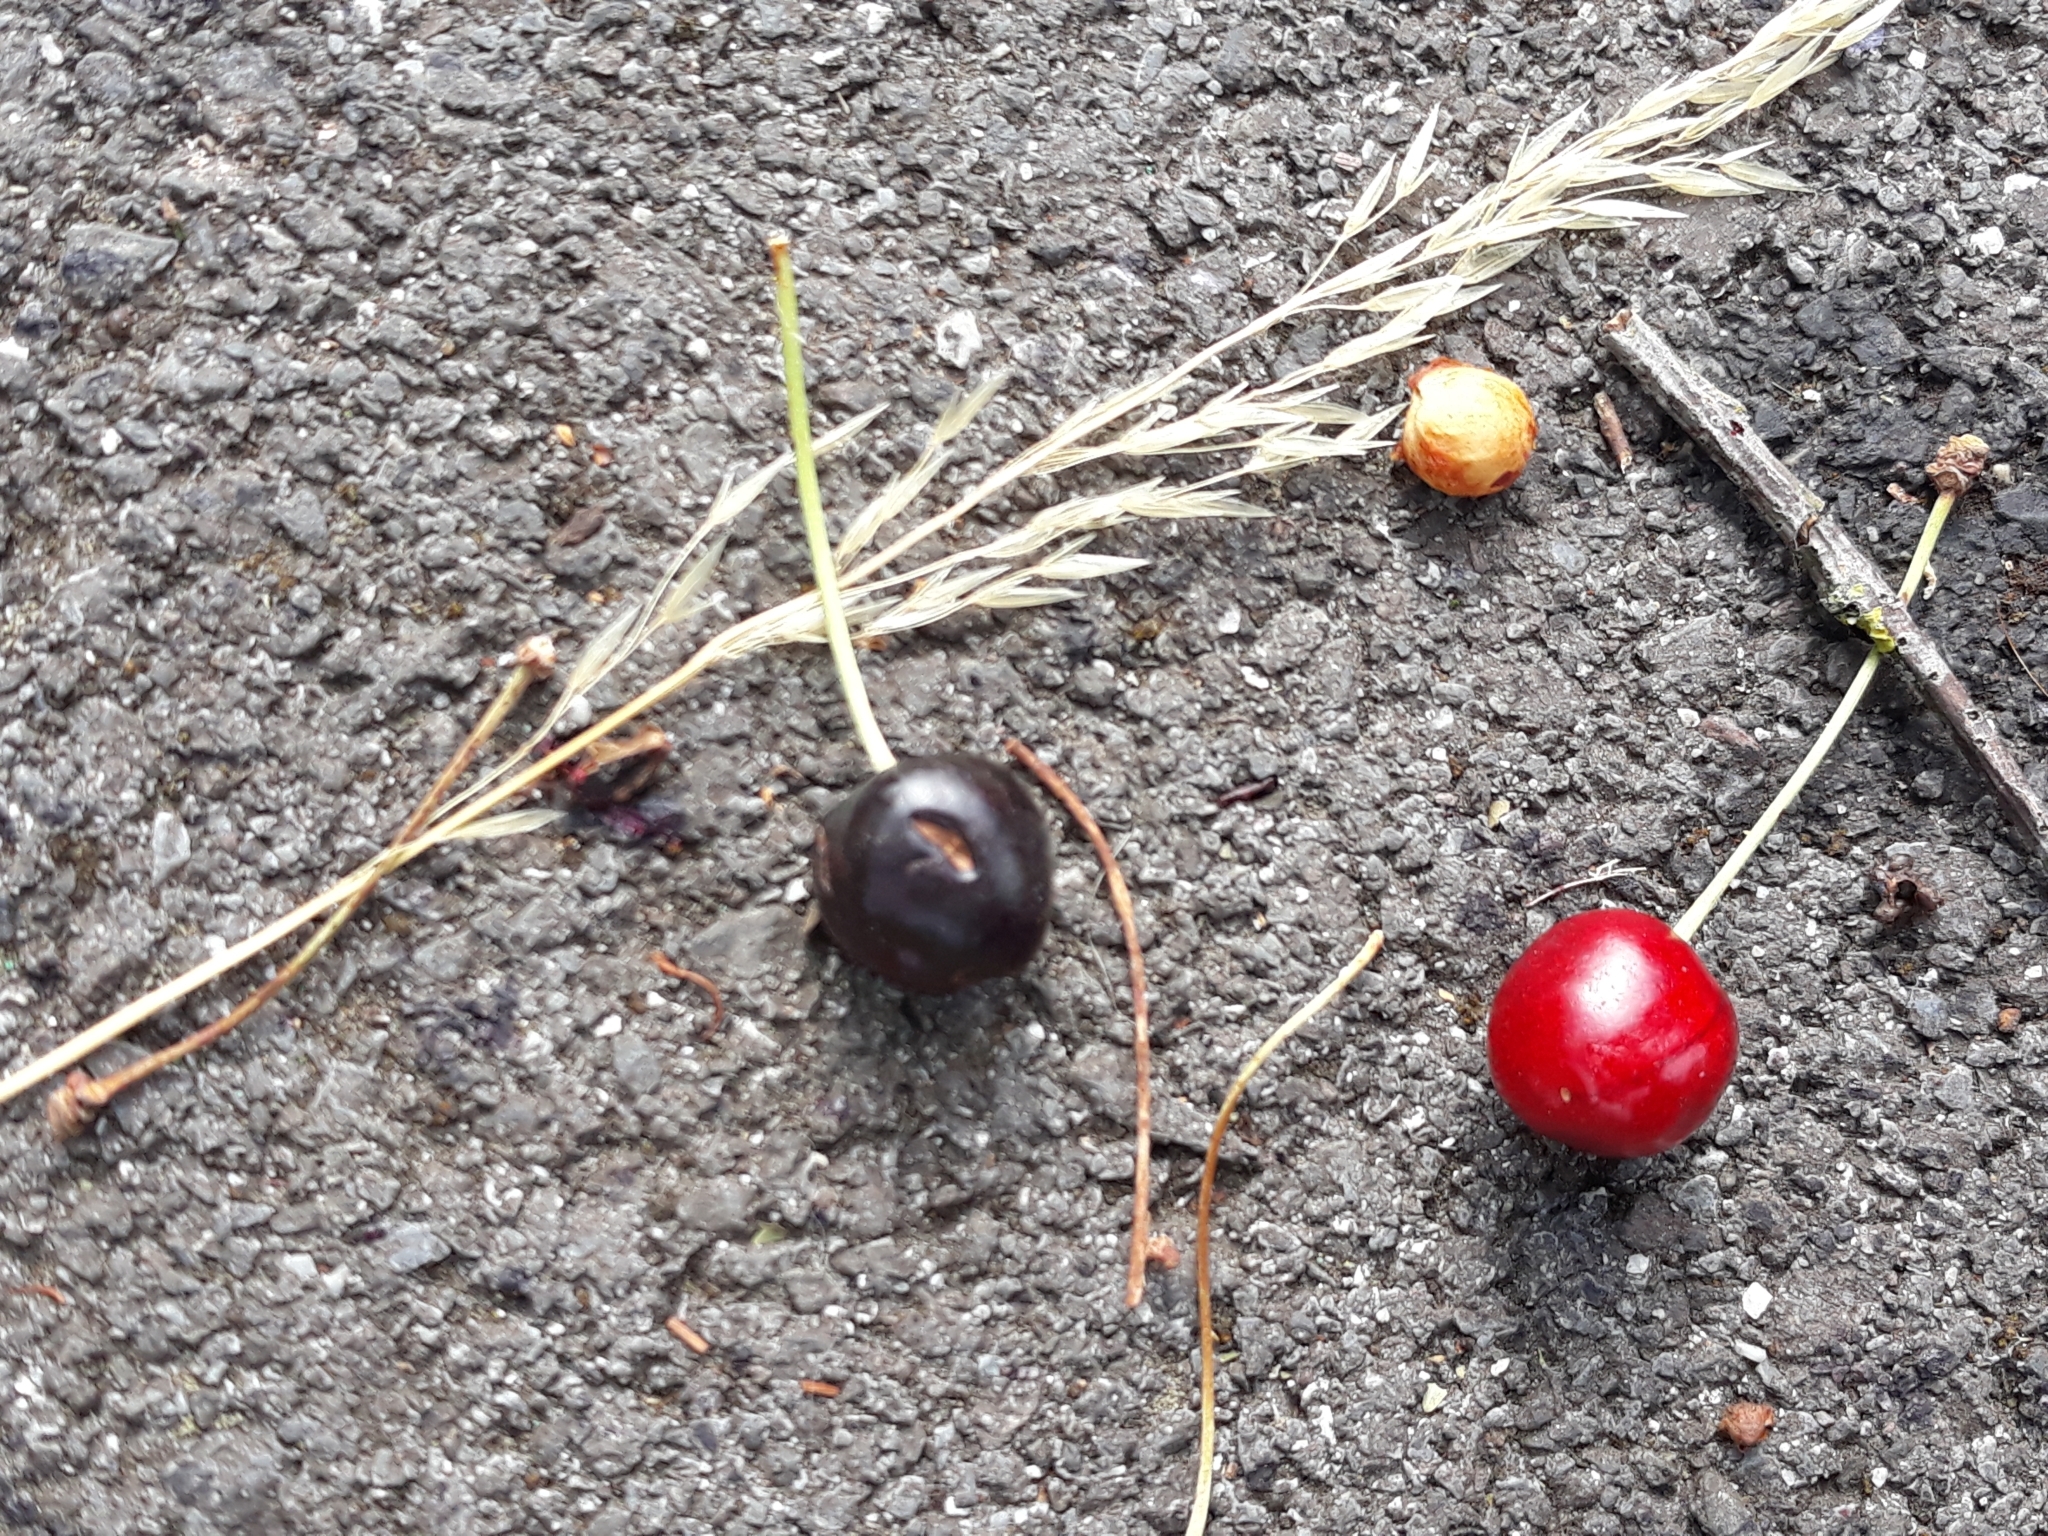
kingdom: Plantae
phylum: Tracheophyta
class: Magnoliopsida
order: Rosales
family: Rosaceae
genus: Prunus
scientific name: Prunus avium
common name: Sweet cherry
